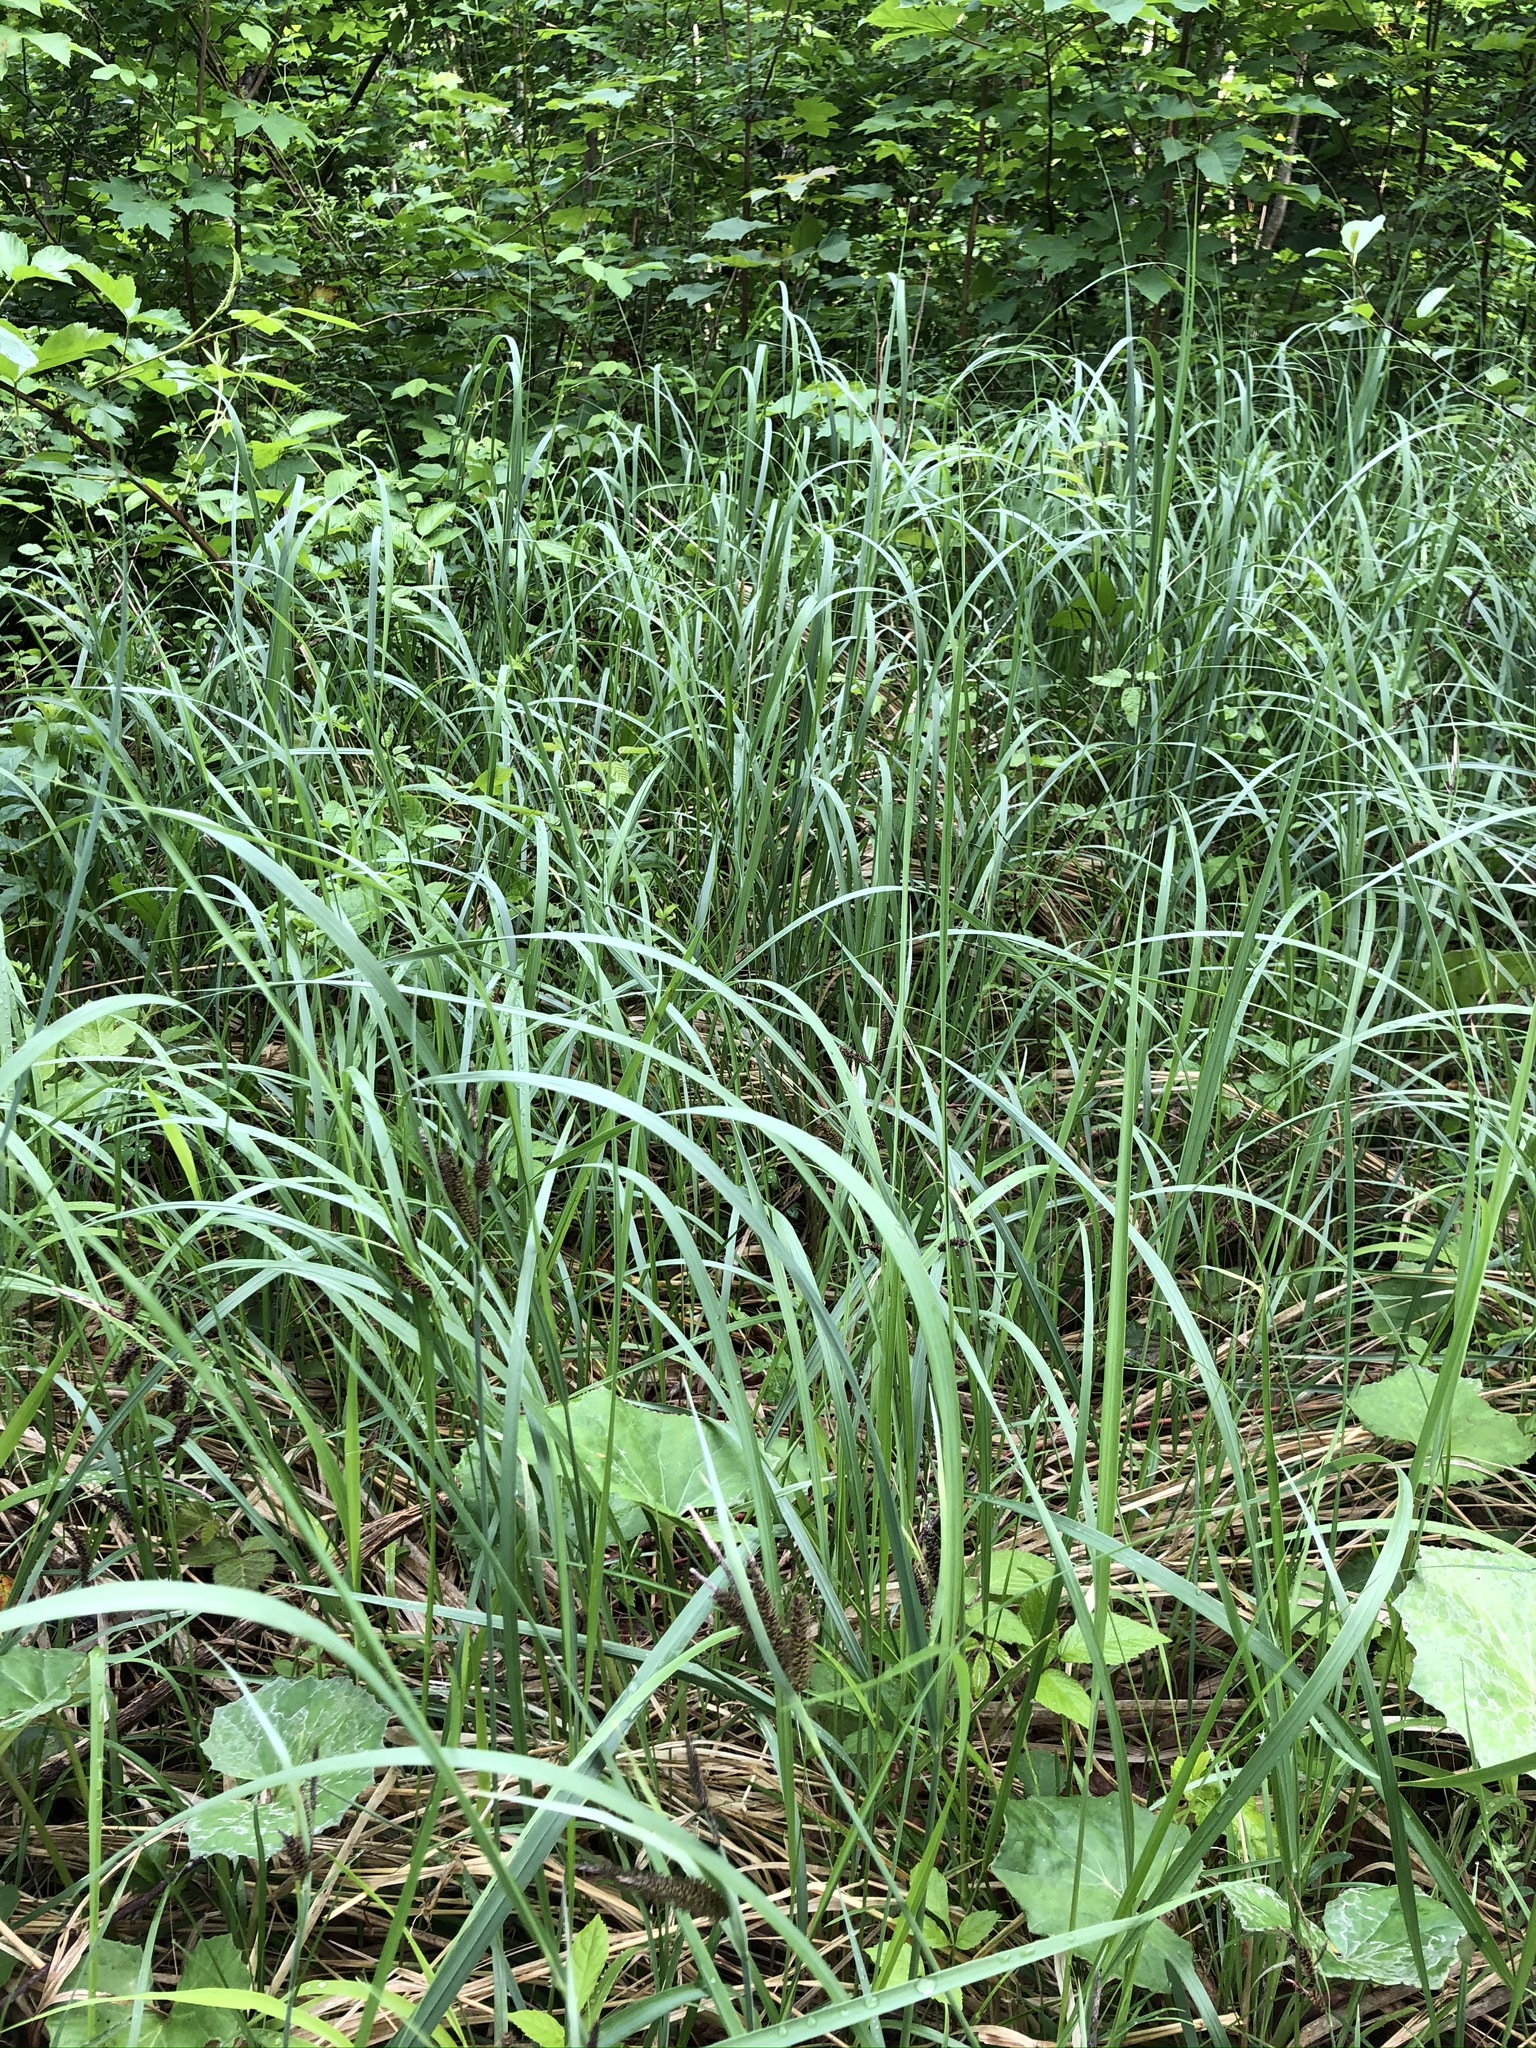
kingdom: Plantae
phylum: Tracheophyta
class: Liliopsida
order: Poales
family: Cyperaceae
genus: Carex
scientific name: Carex flacca
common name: Glaucous sedge
